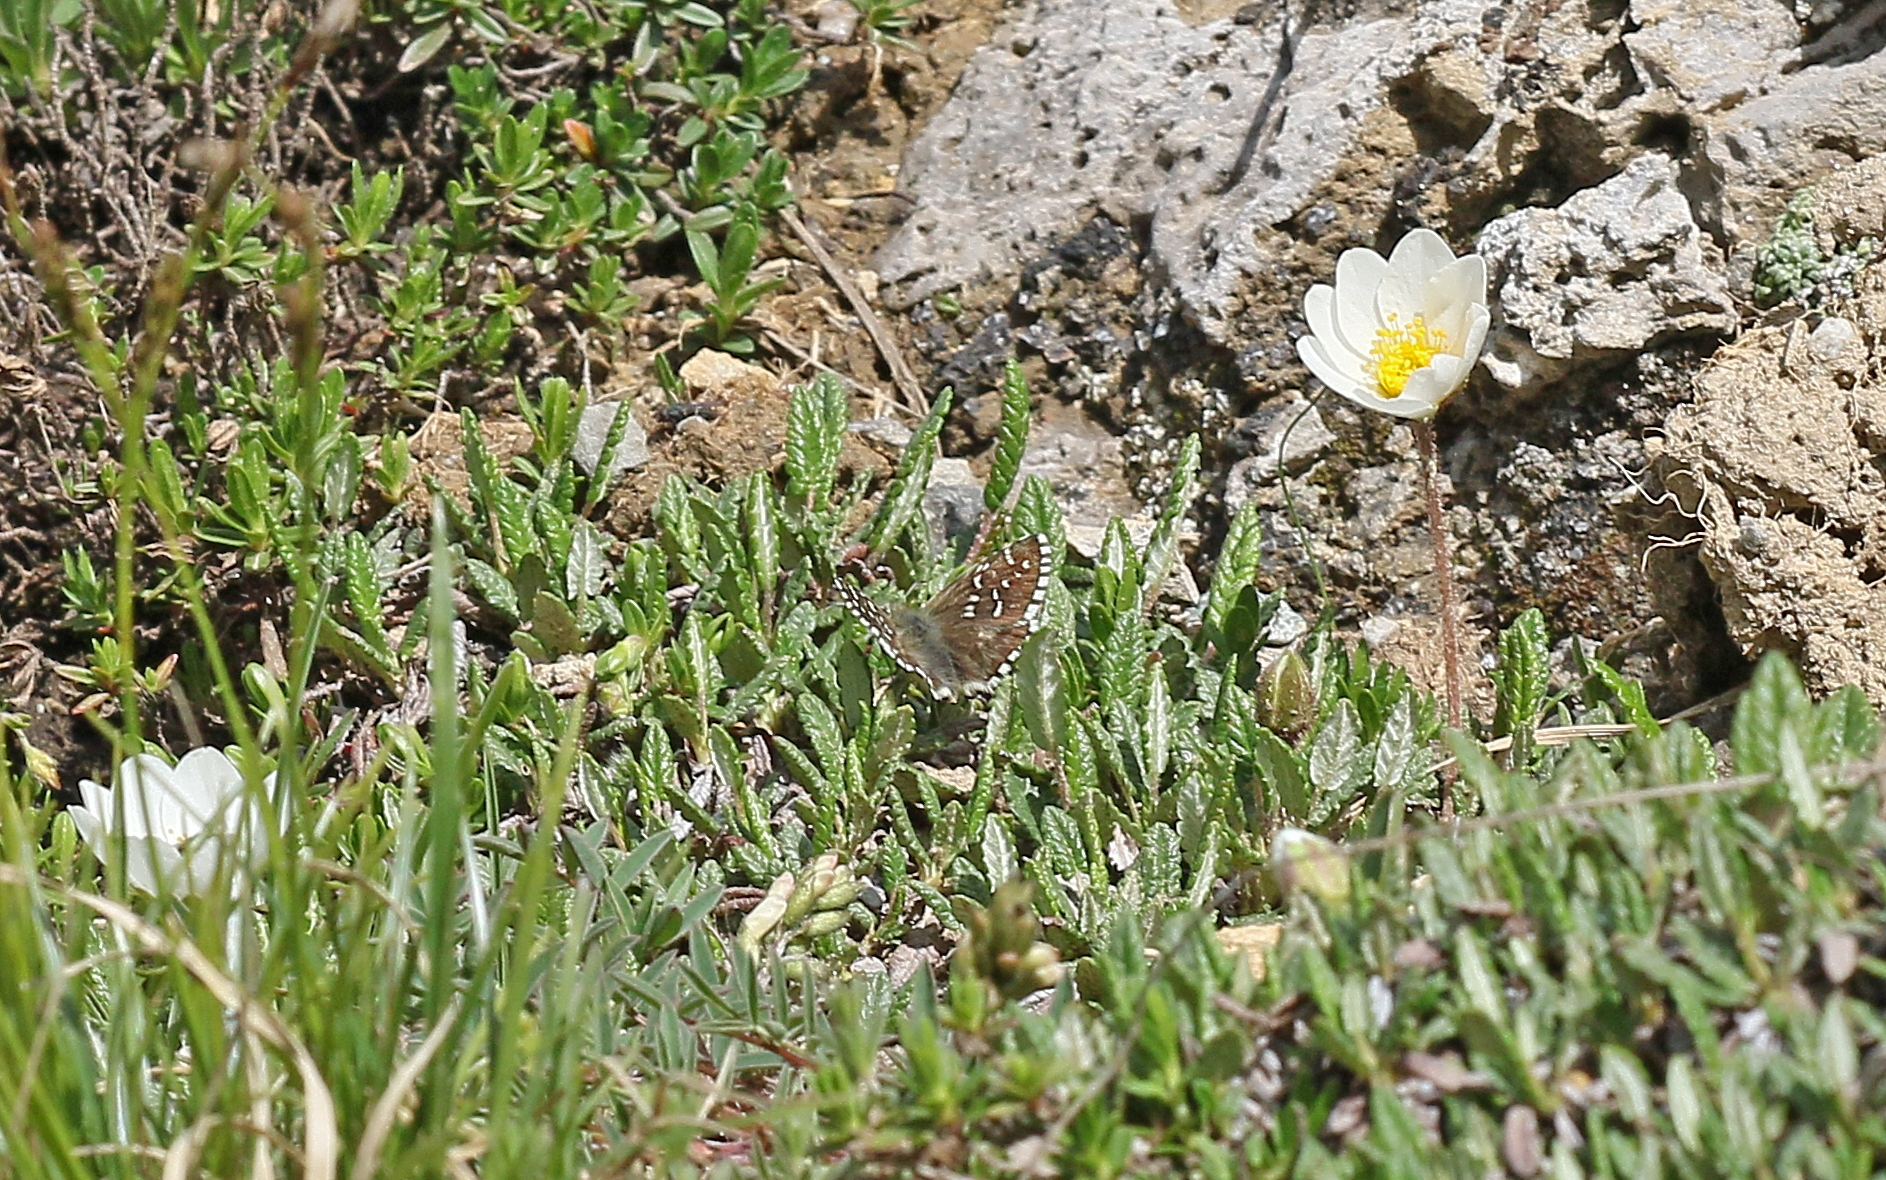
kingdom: Animalia
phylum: Arthropoda
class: Insecta
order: Lepidoptera
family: Hesperiidae
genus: Pyrgus
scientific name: Pyrgus andromedae
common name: Alpine grizzled skipper
